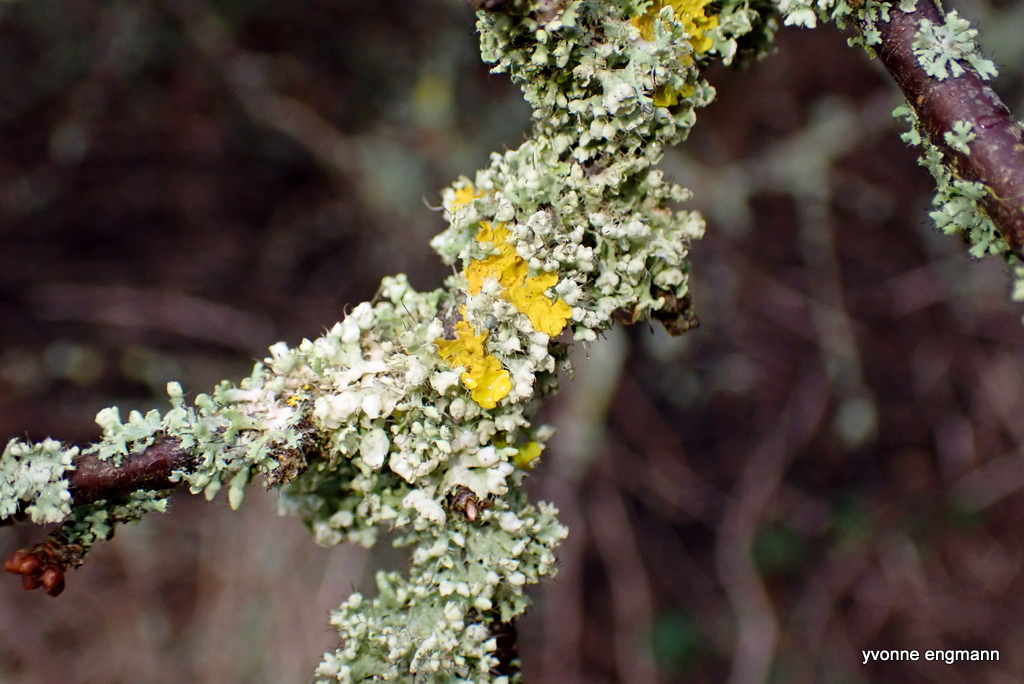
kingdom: Fungi
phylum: Ascomycota
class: Lecanoromycetes
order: Caliciales
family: Physciaceae
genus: Physcia
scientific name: Physcia adscendens
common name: Hooded rosette lichen
